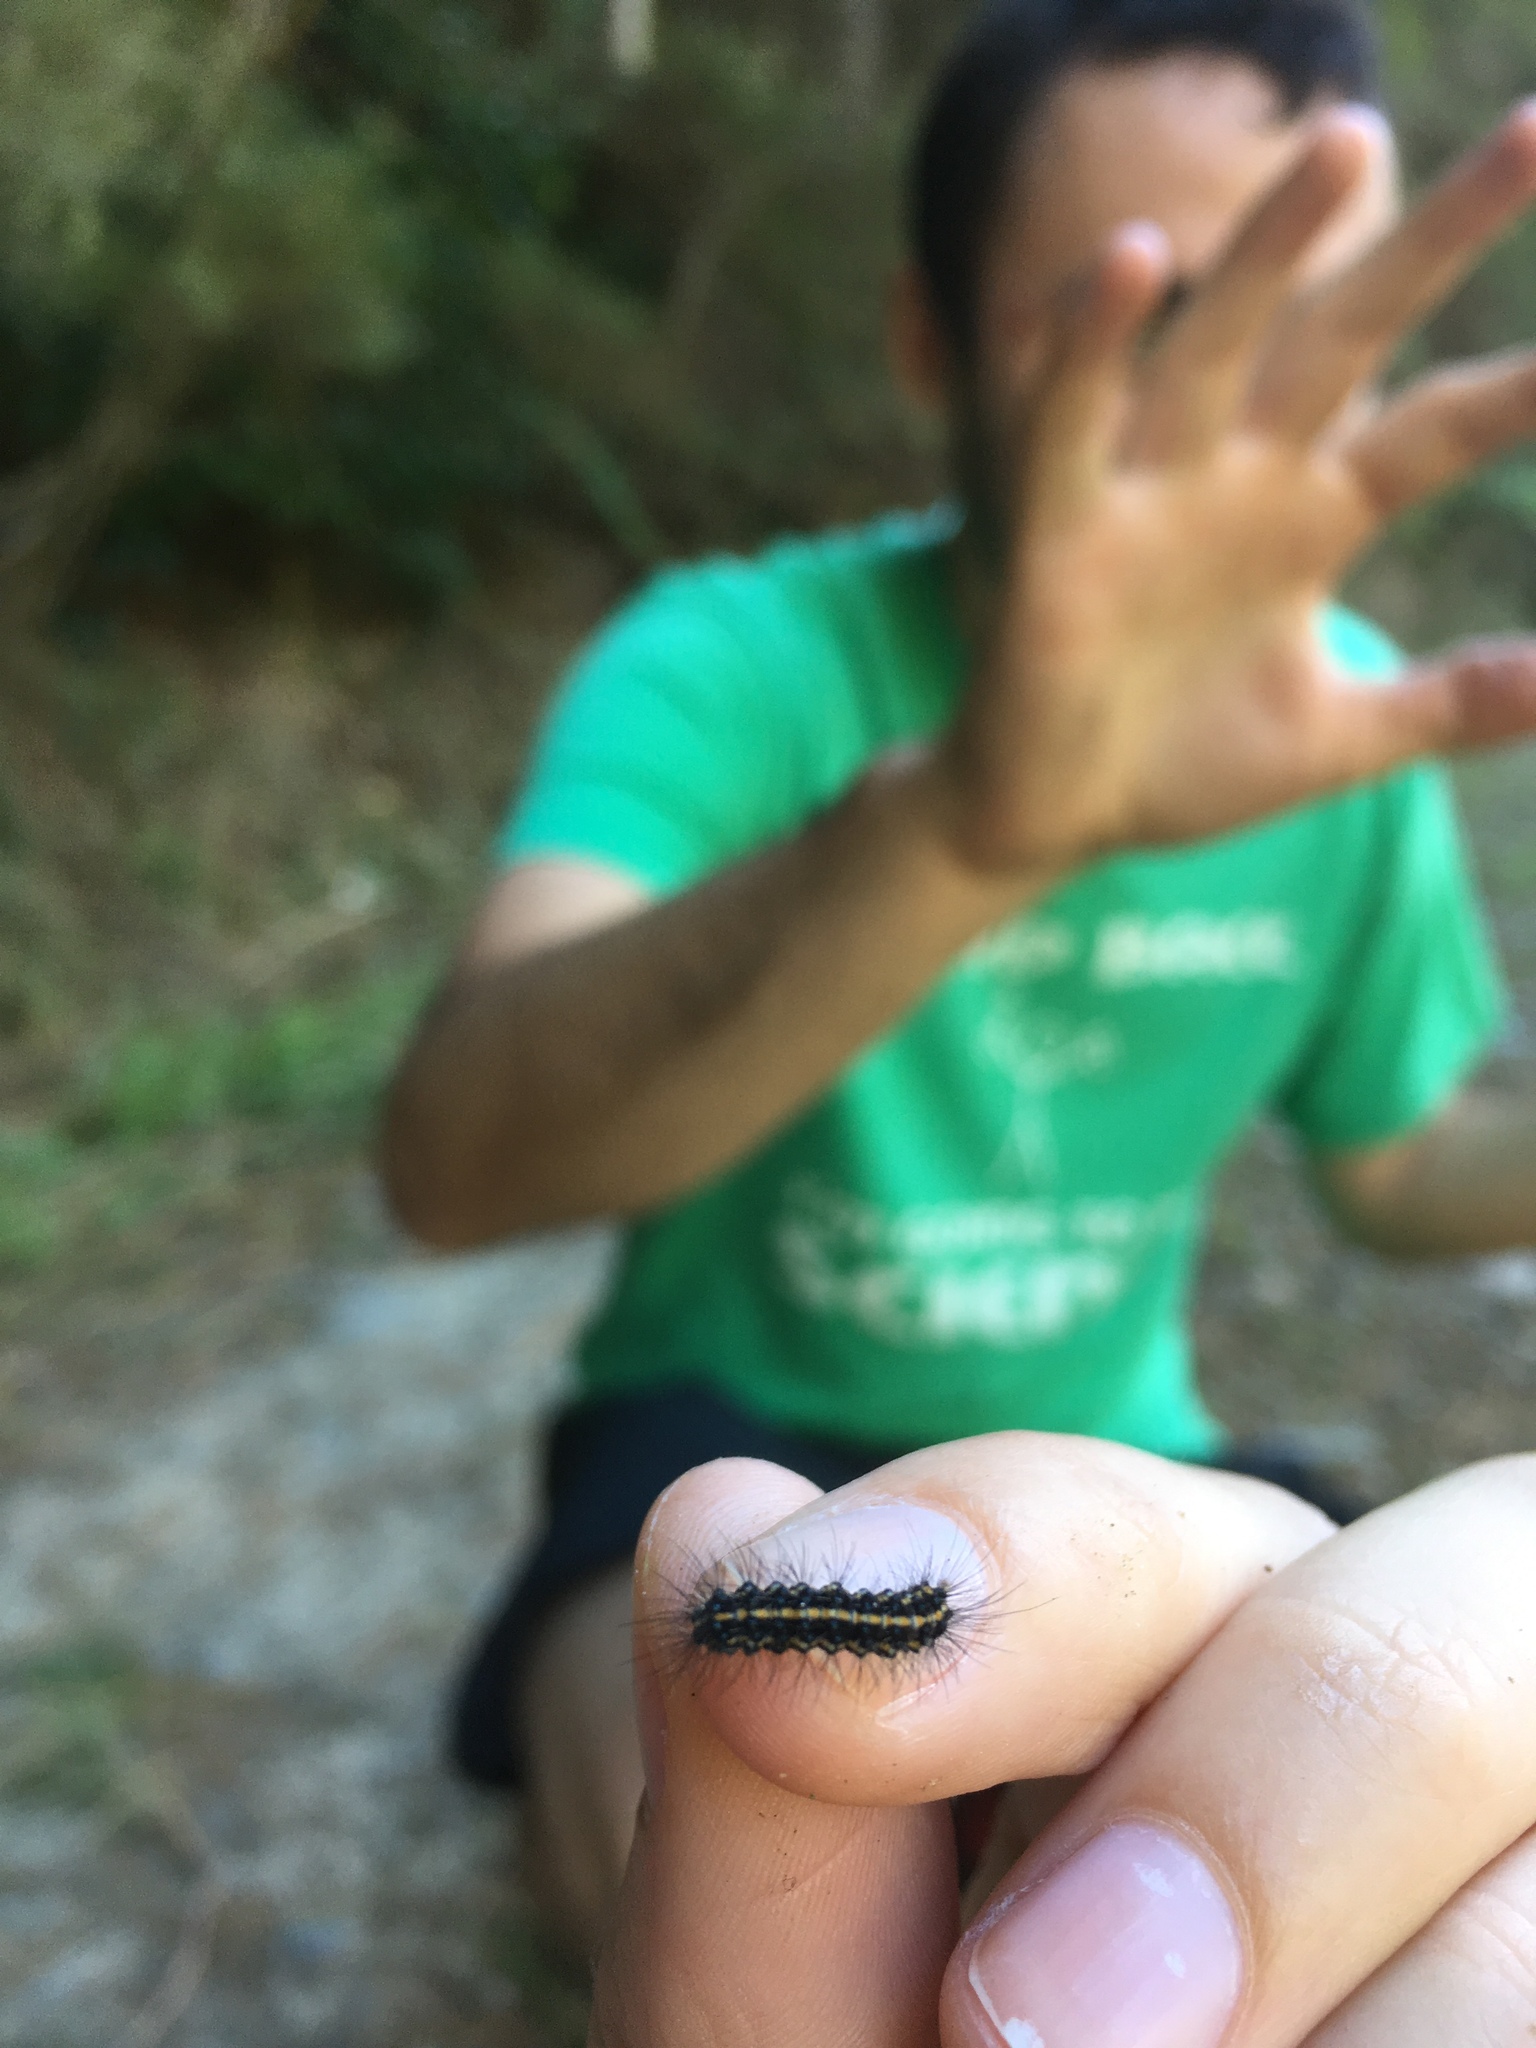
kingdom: Animalia
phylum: Arthropoda
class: Insecta
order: Lepidoptera
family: Erebidae
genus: Nyctemera
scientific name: Nyctemera annulatum
